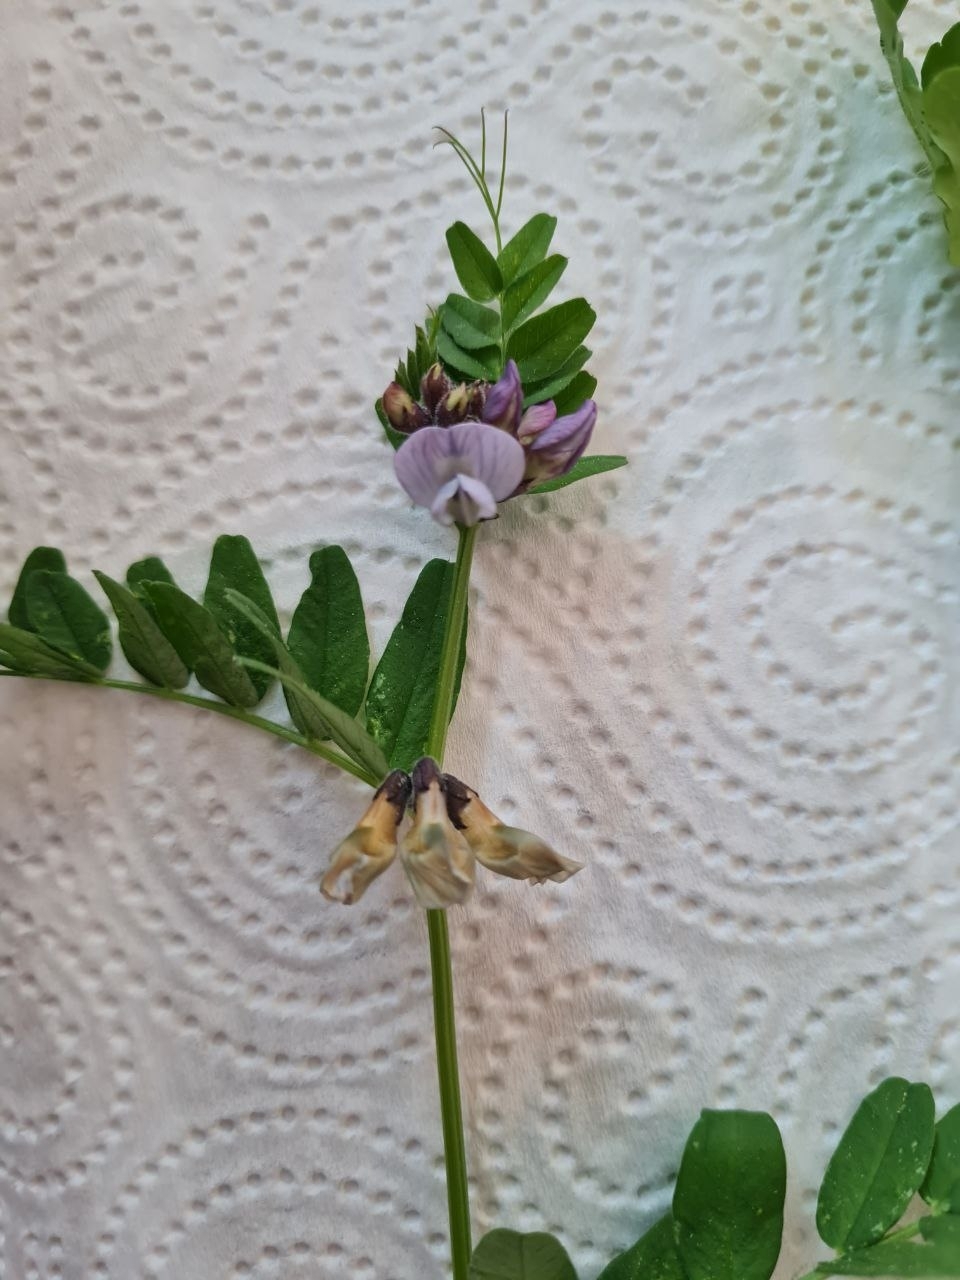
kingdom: Plantae
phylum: Tracheophyta
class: Magnoliopsida
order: Fabales
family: Fabaceae
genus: Vicia
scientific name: Vicia sepium
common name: Bush vetch
